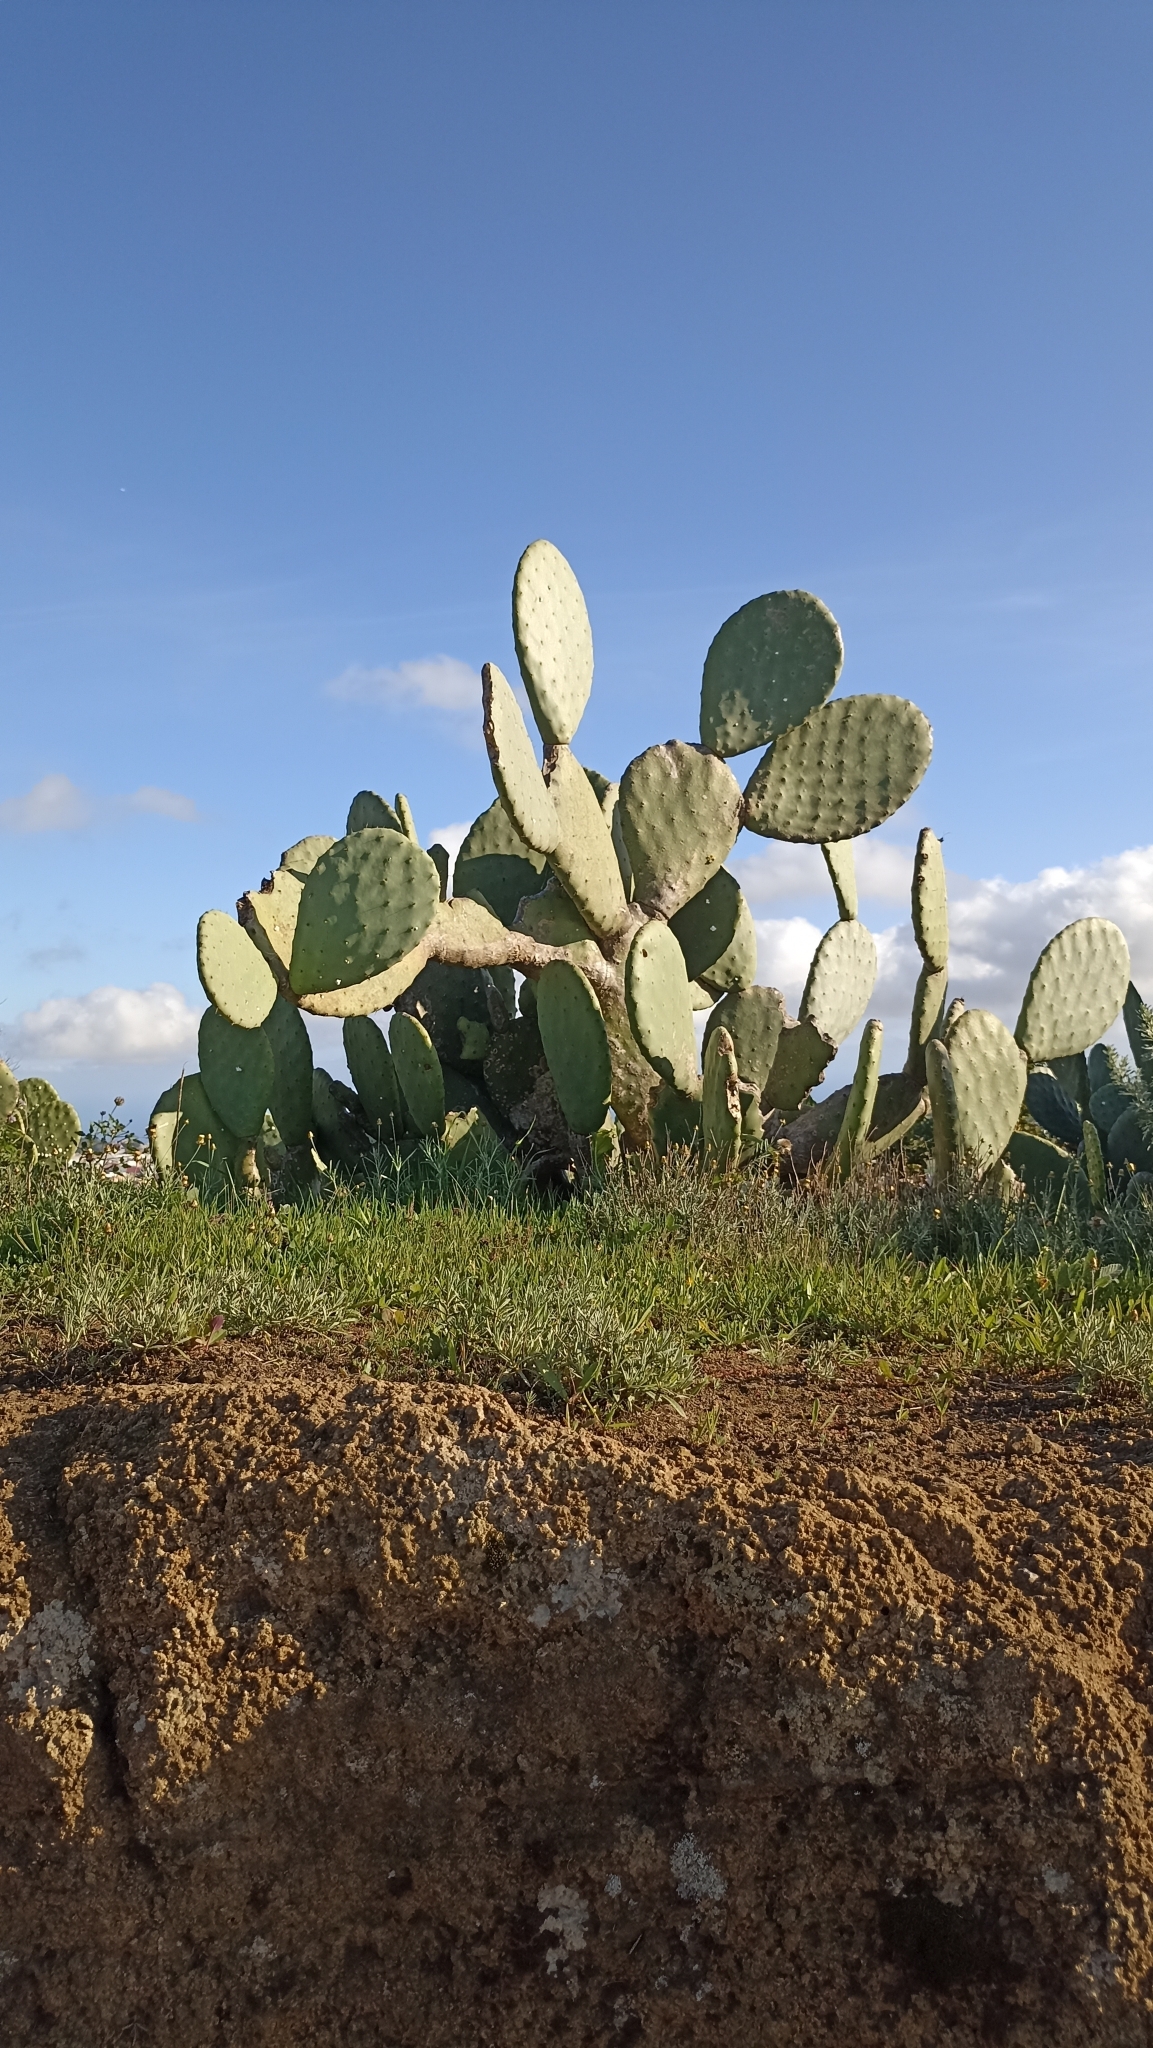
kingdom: Plantae
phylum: Tracheophyta
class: Magnoliopsida
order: Caryophyllales
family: Cactaceae
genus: Opuntia
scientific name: Opuntia ficus-indica
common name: Barbary fig
